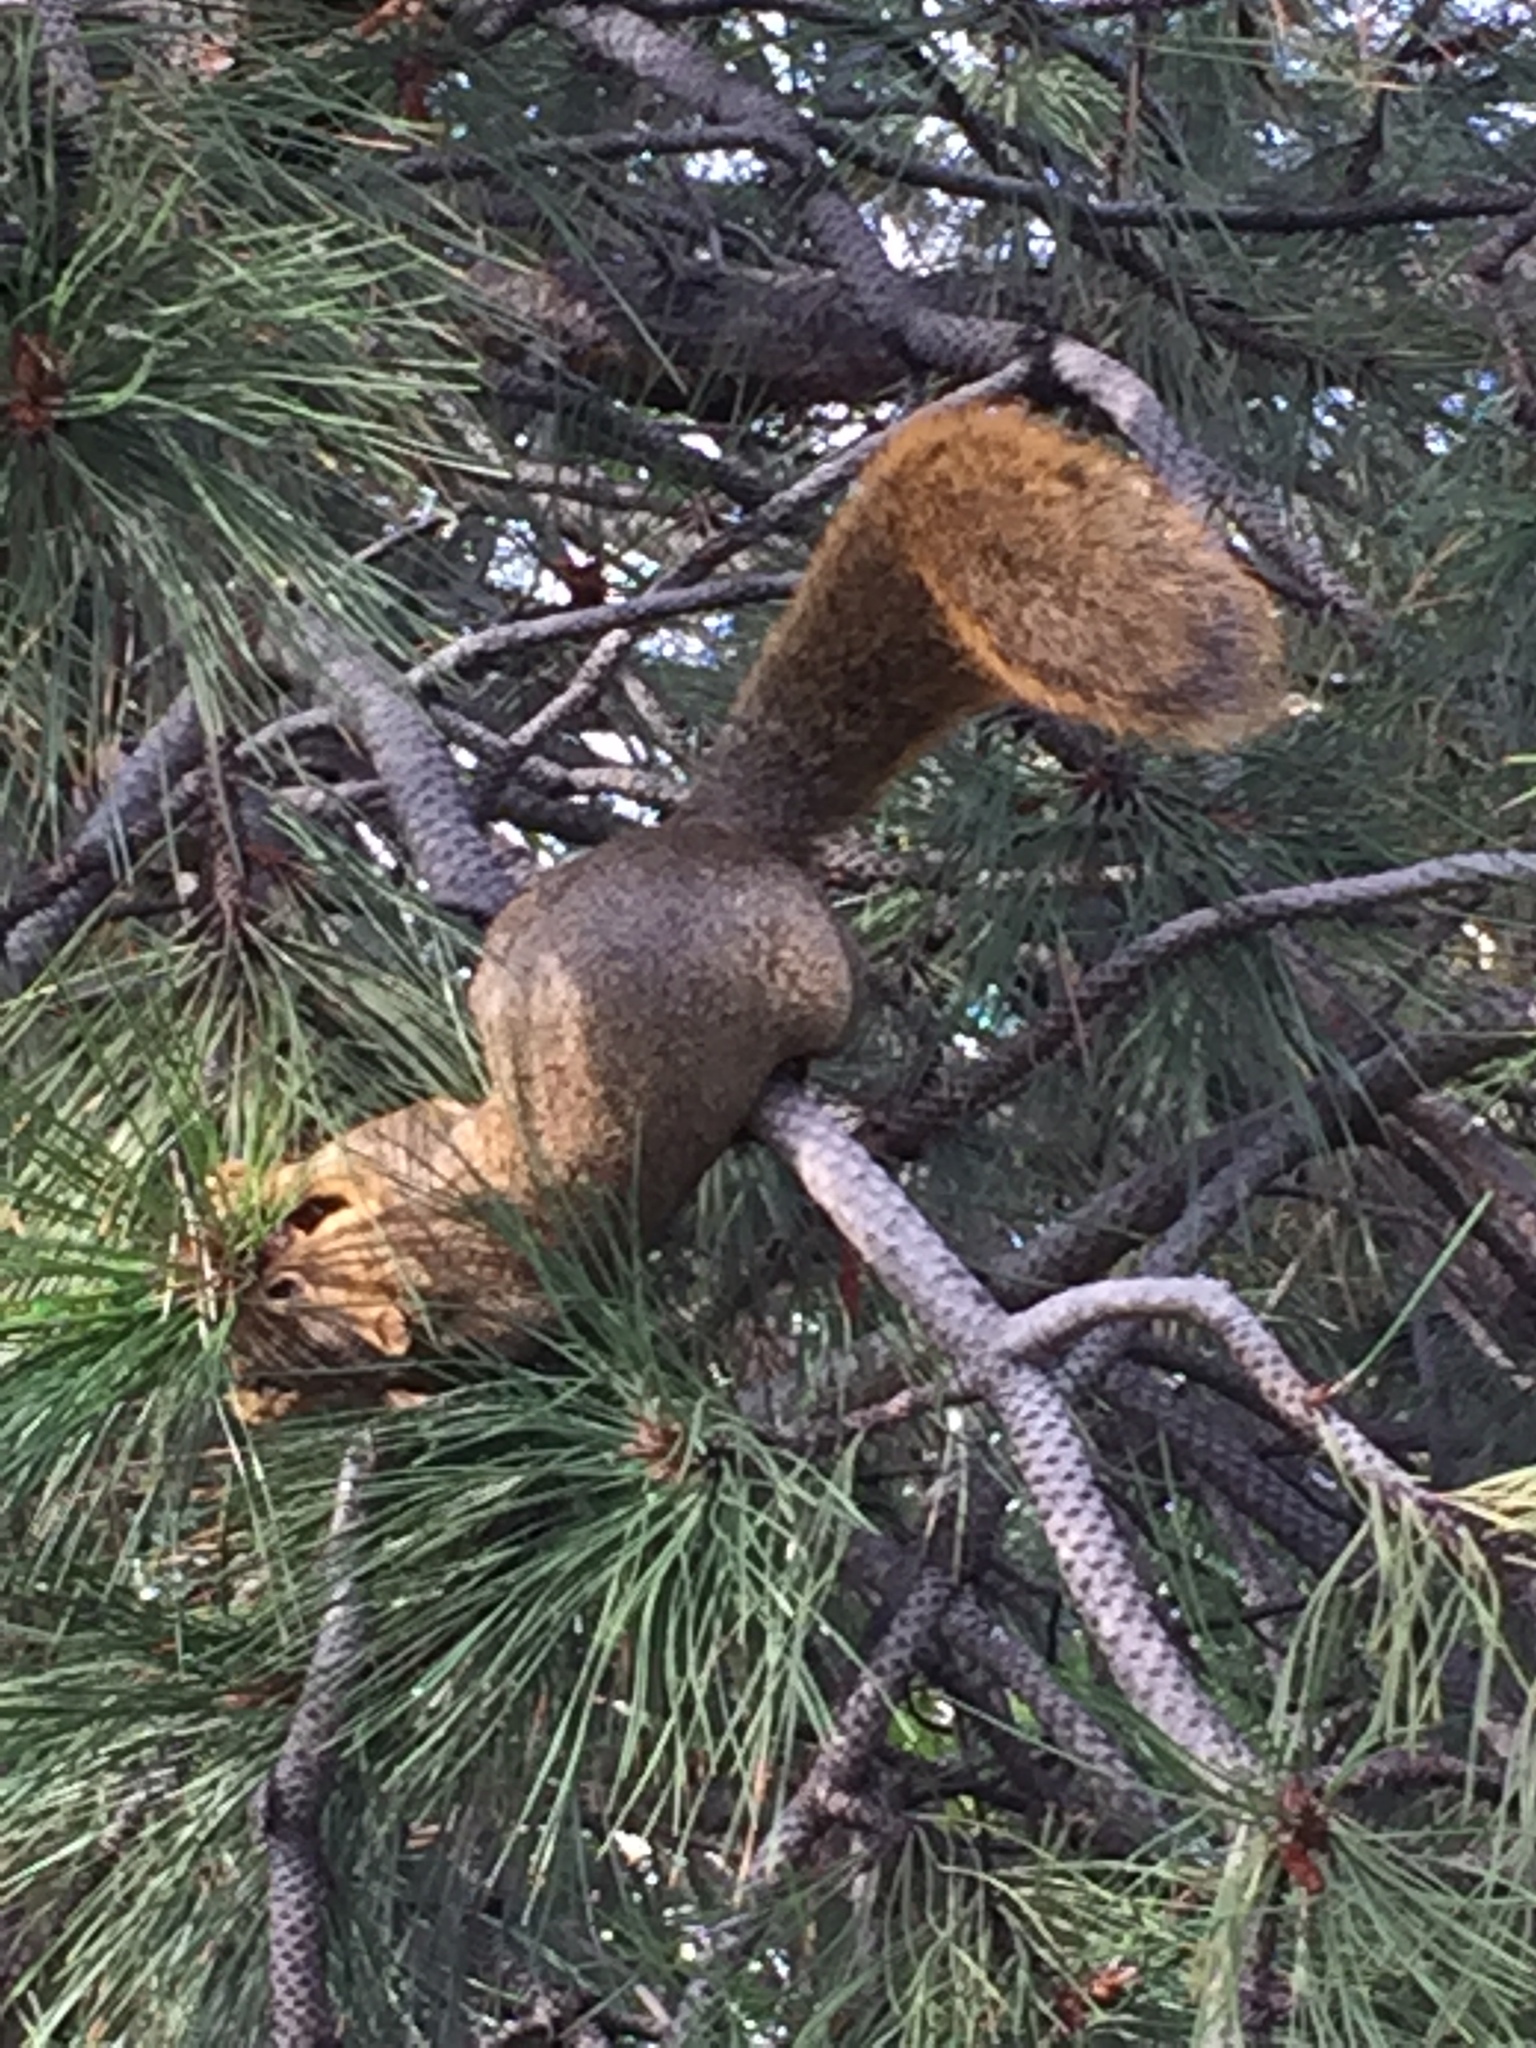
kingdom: Animalia
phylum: Chordata
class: Mammalia
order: Rodentia
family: Sciuridae
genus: Sciurus
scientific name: Sciurus niger
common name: Fox squirrel
